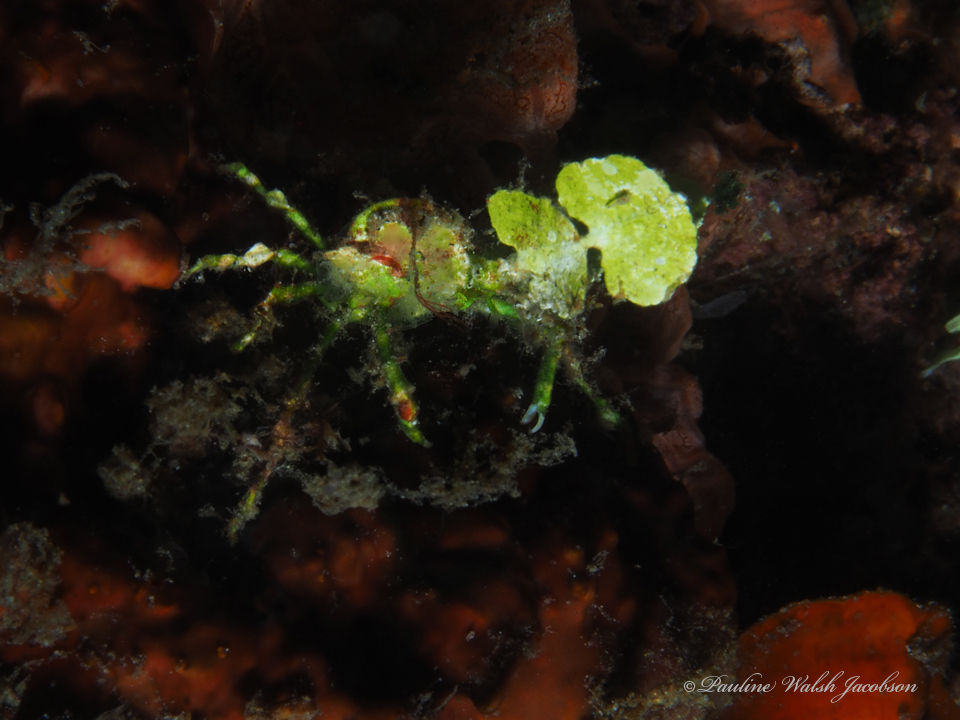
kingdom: Animalia
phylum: Arthropoda
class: Malacostraca
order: Decapoda
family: Epialtidae
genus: Huenia
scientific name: Huenia heraldica
